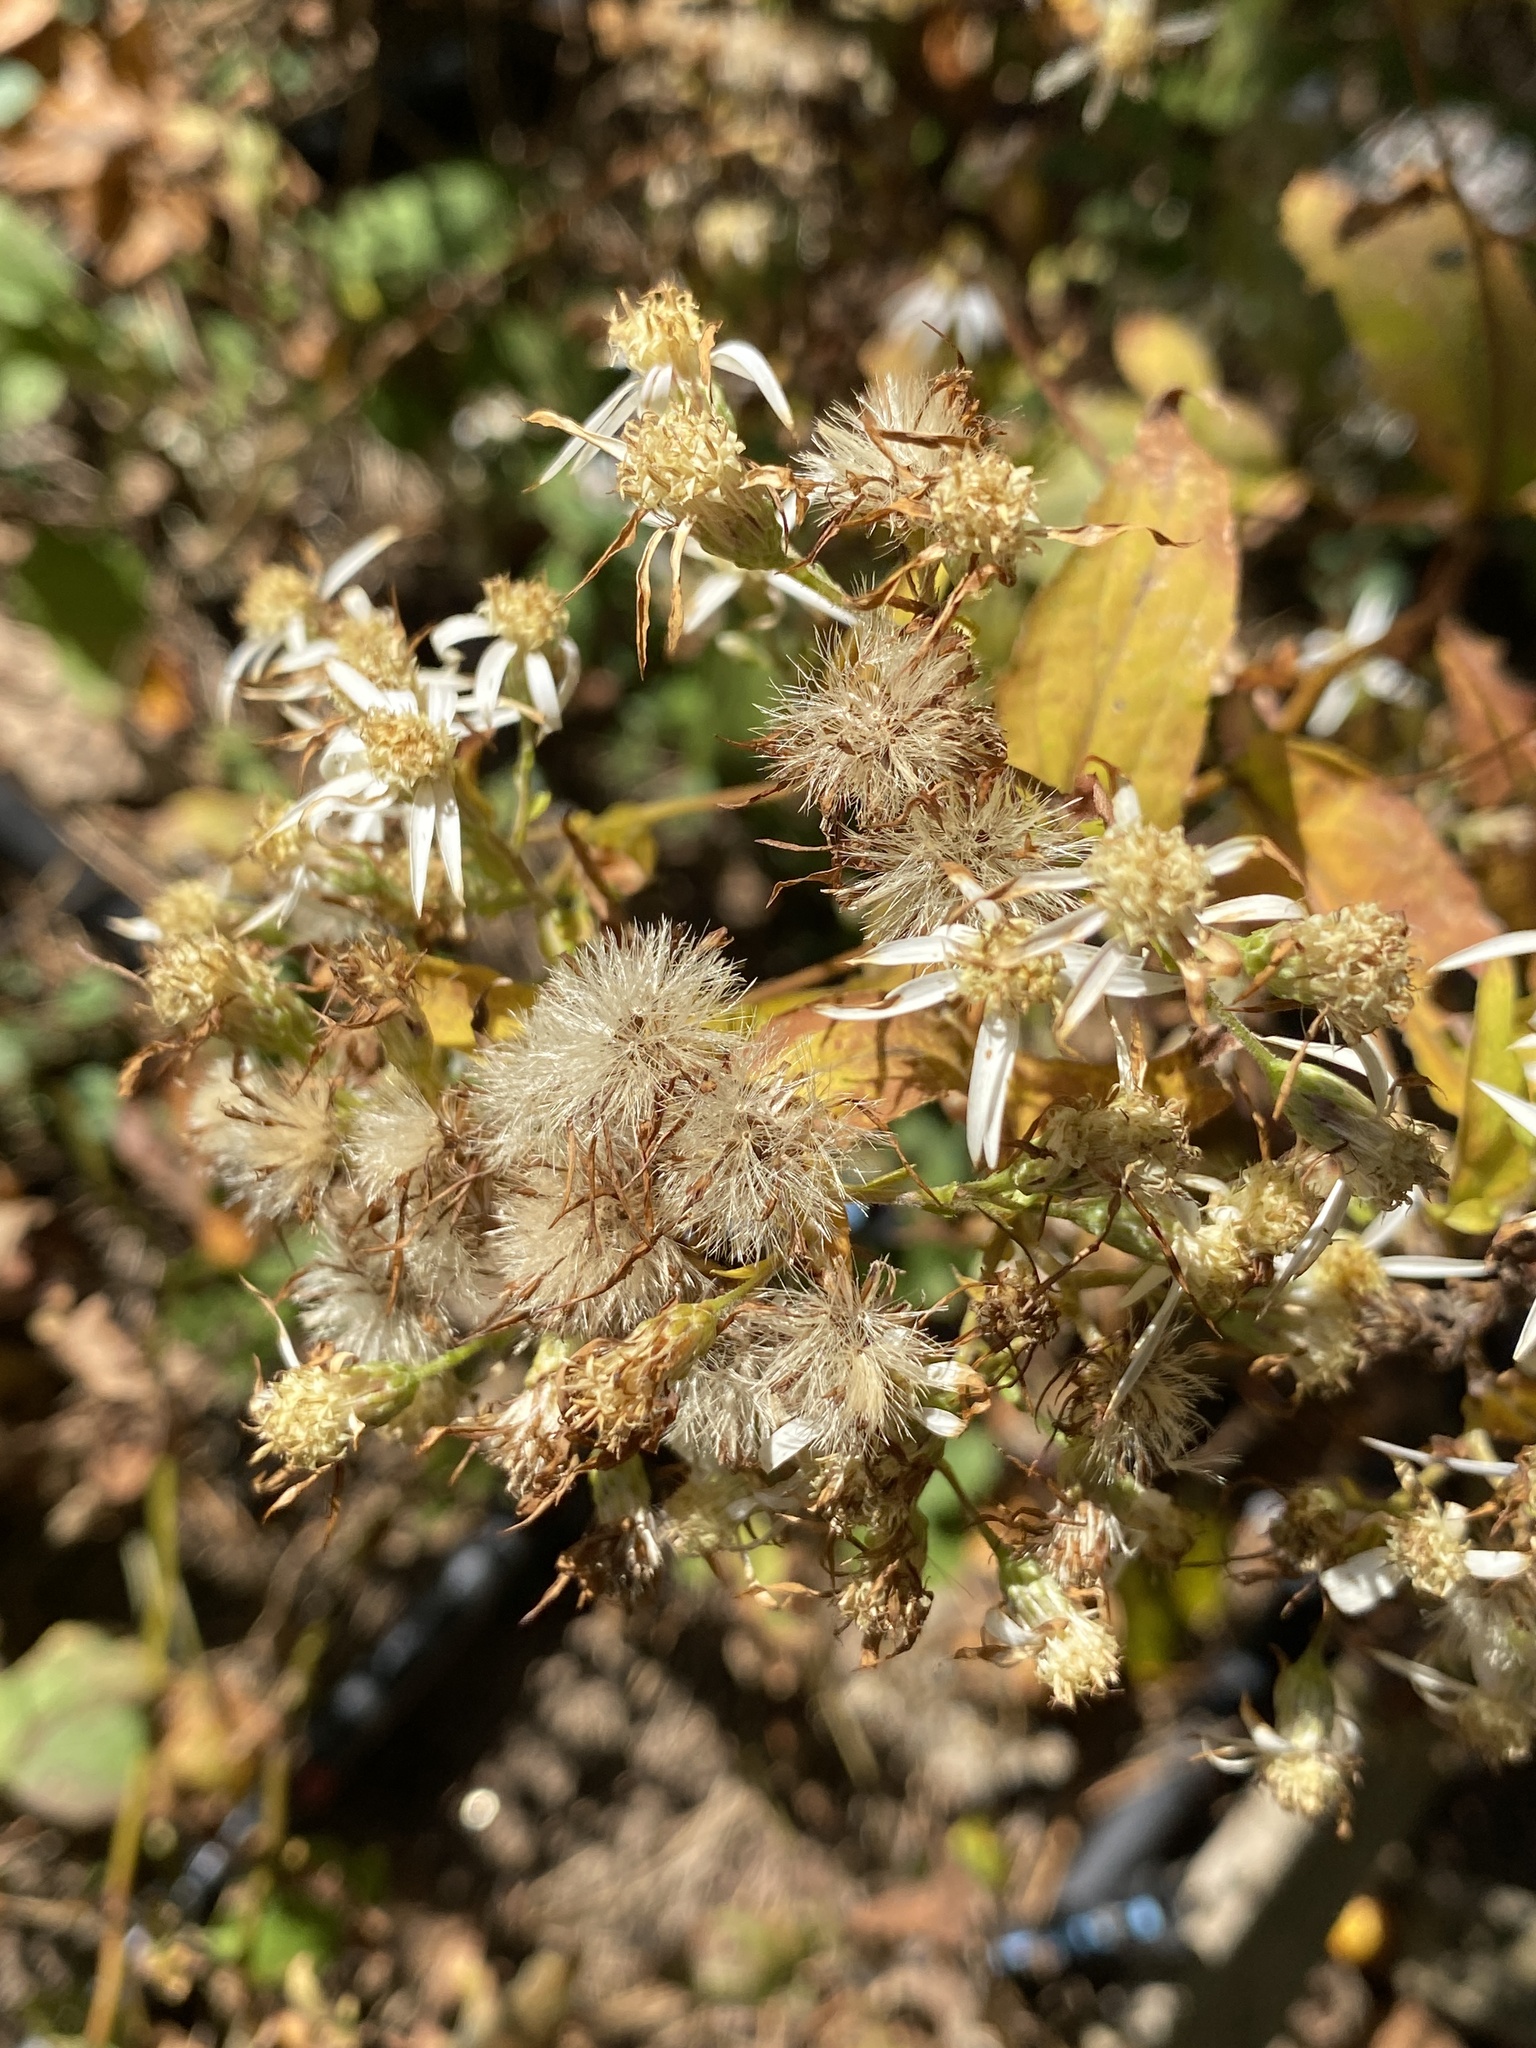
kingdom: Plantae
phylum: Tracheophyta
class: Magnoliopsida
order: Asterales
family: Asteraceae
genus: Eurybia
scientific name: Eurybia divaricata
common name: White wood aster
